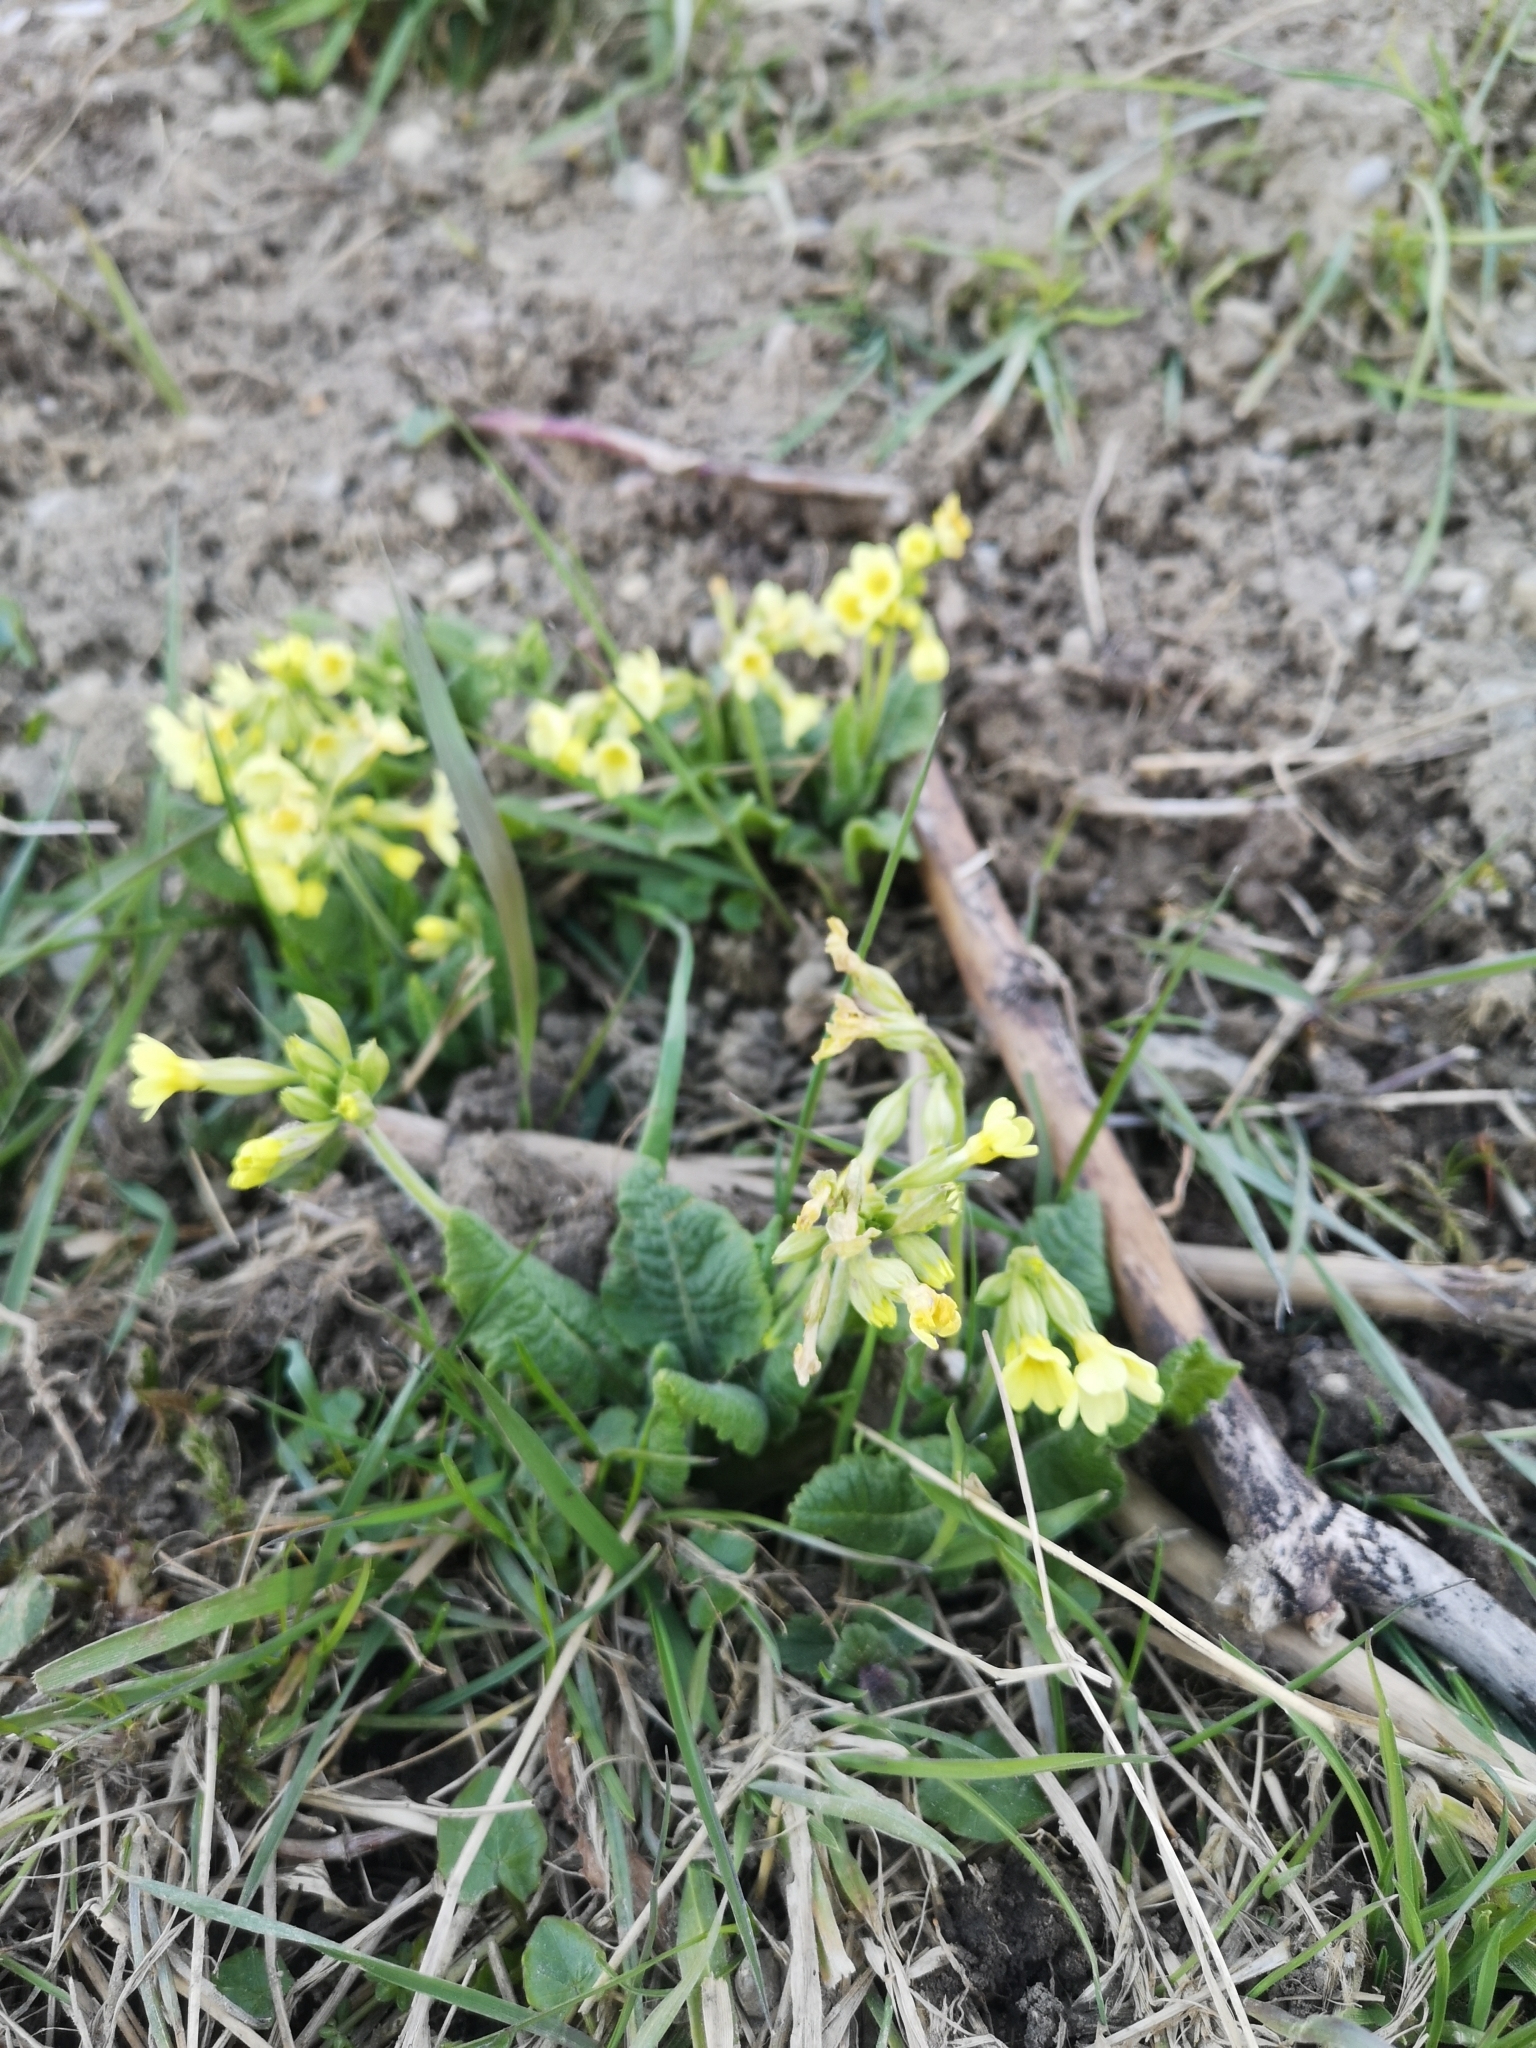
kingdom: Plantae
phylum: Tracheophyta
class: Magnoliopsida
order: Ericales
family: Primulaceae
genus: Primula
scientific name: Primula elatior
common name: Oxlip
